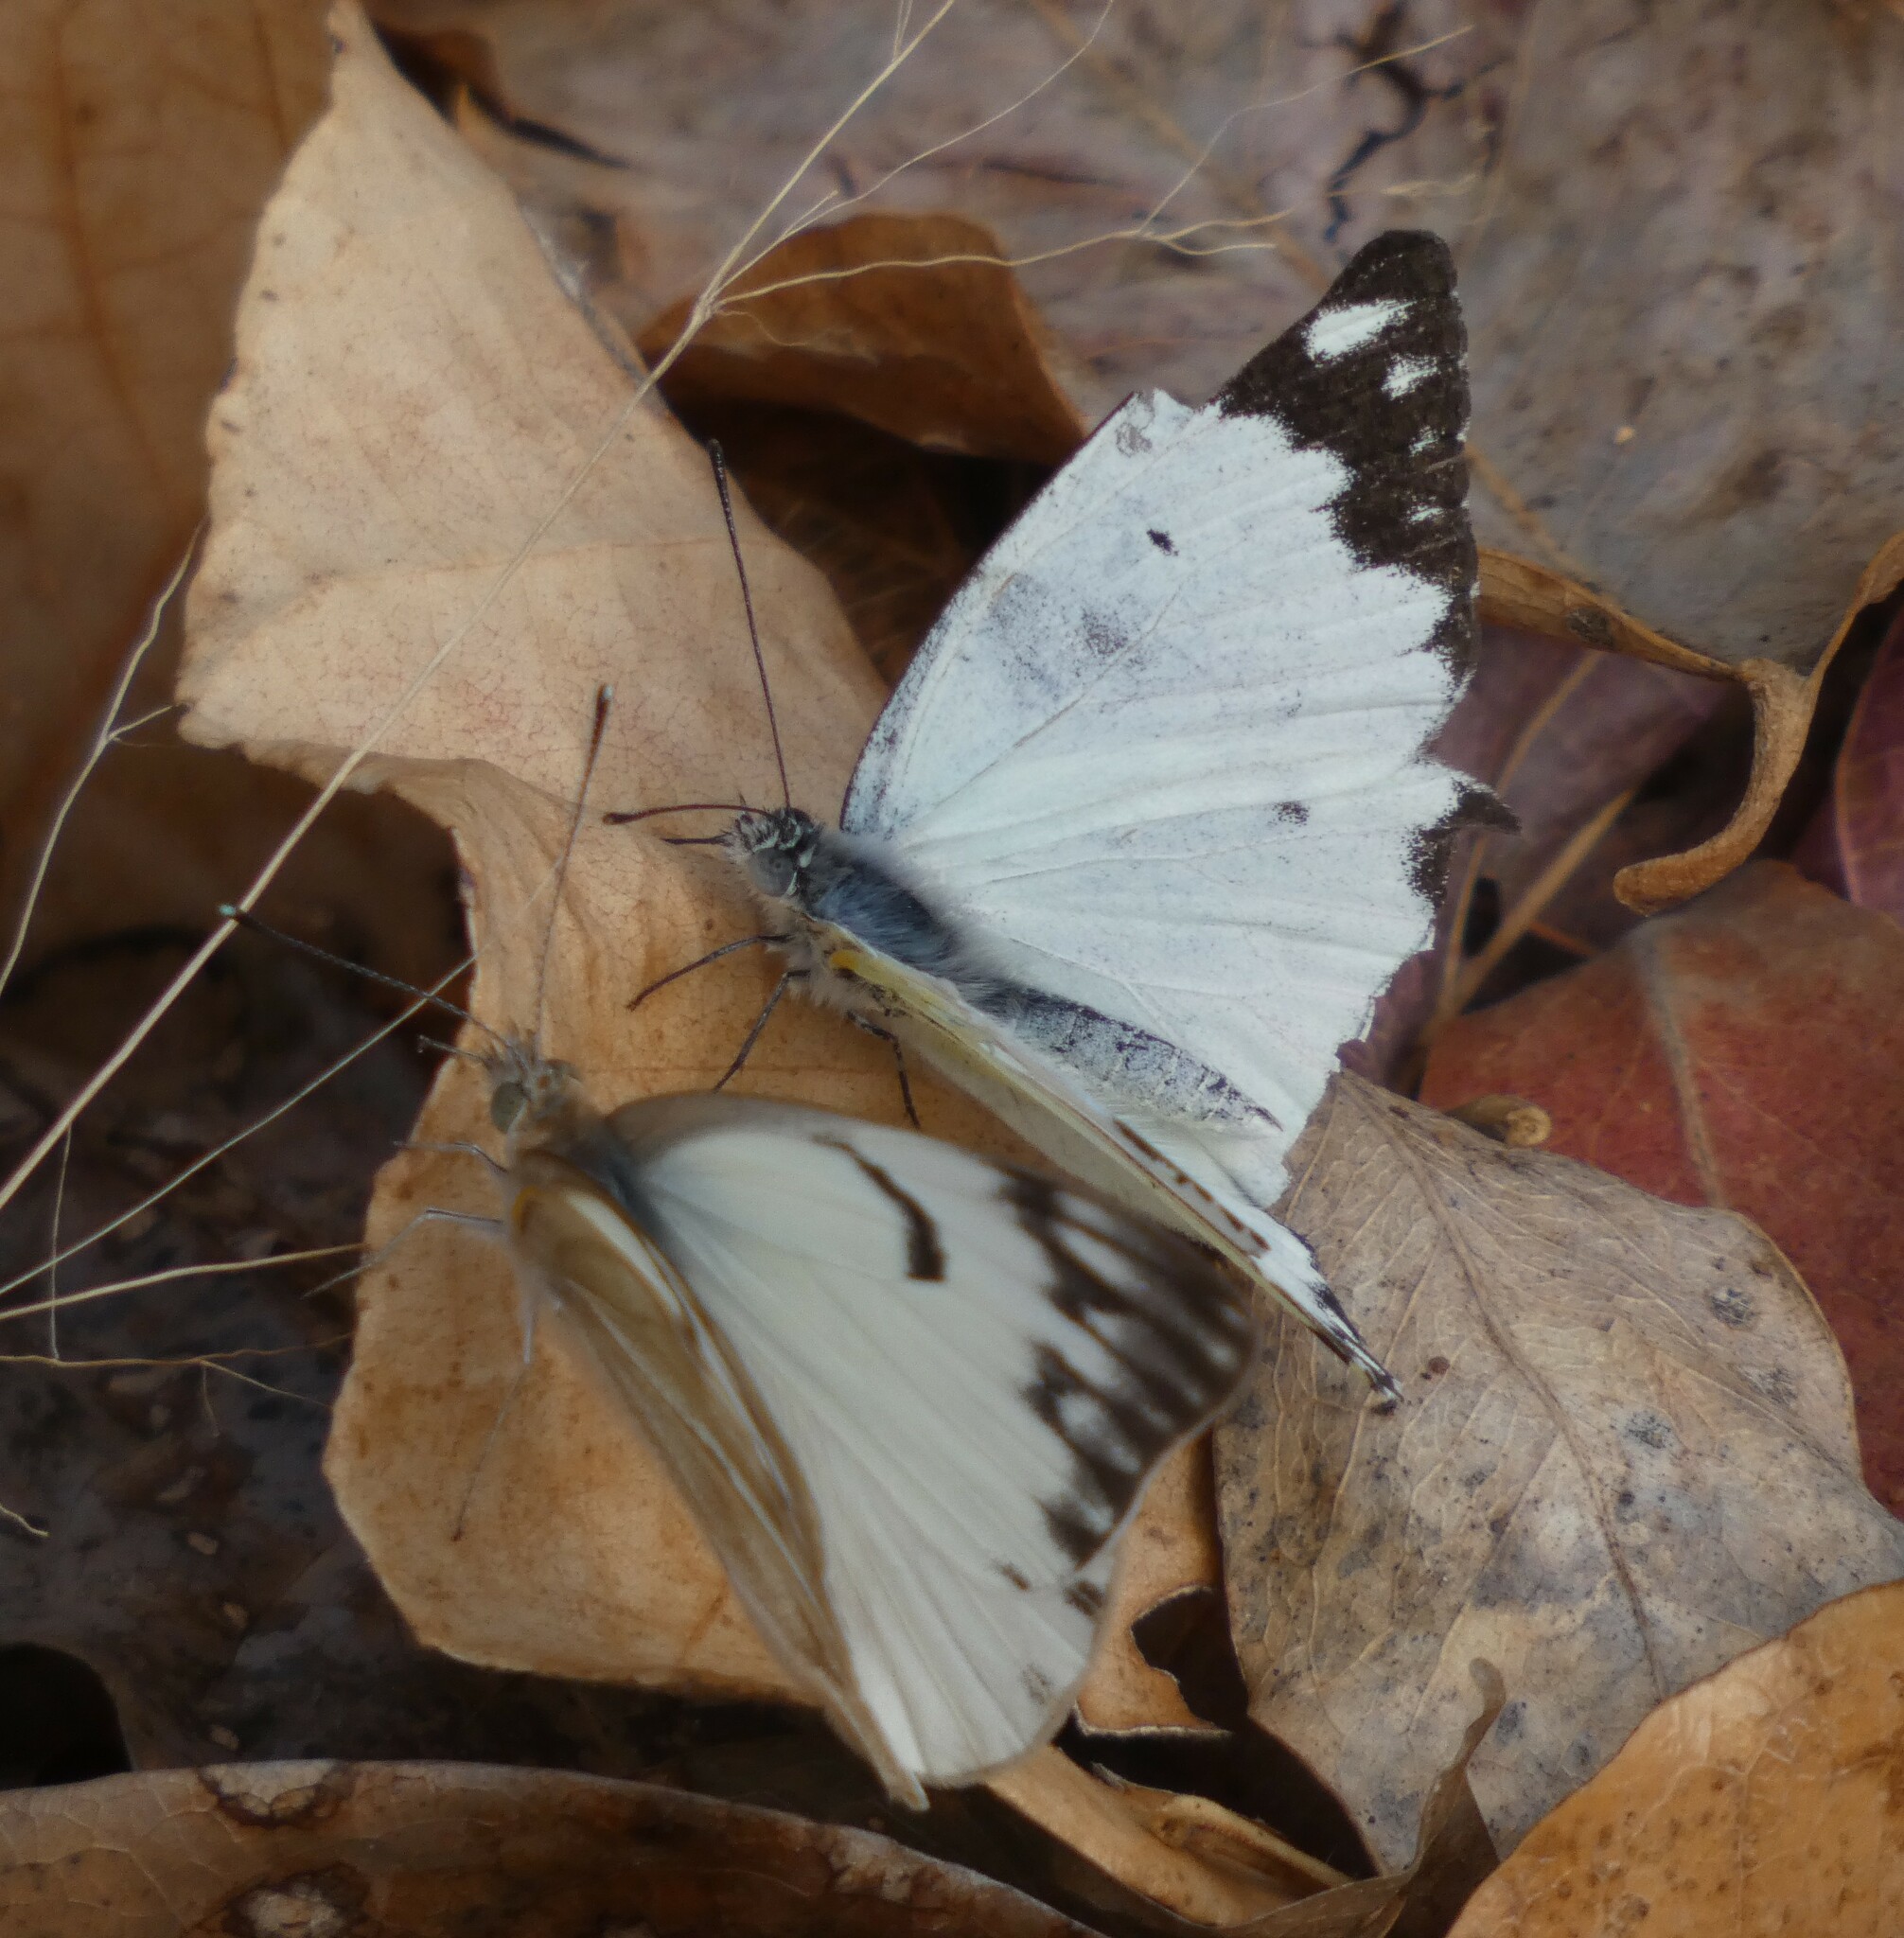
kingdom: Animalia
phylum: Arthropoda
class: Insecta
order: Lepidoptera
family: Pieridae
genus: Belenois
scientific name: Belenois gidica
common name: Pointed caper white
